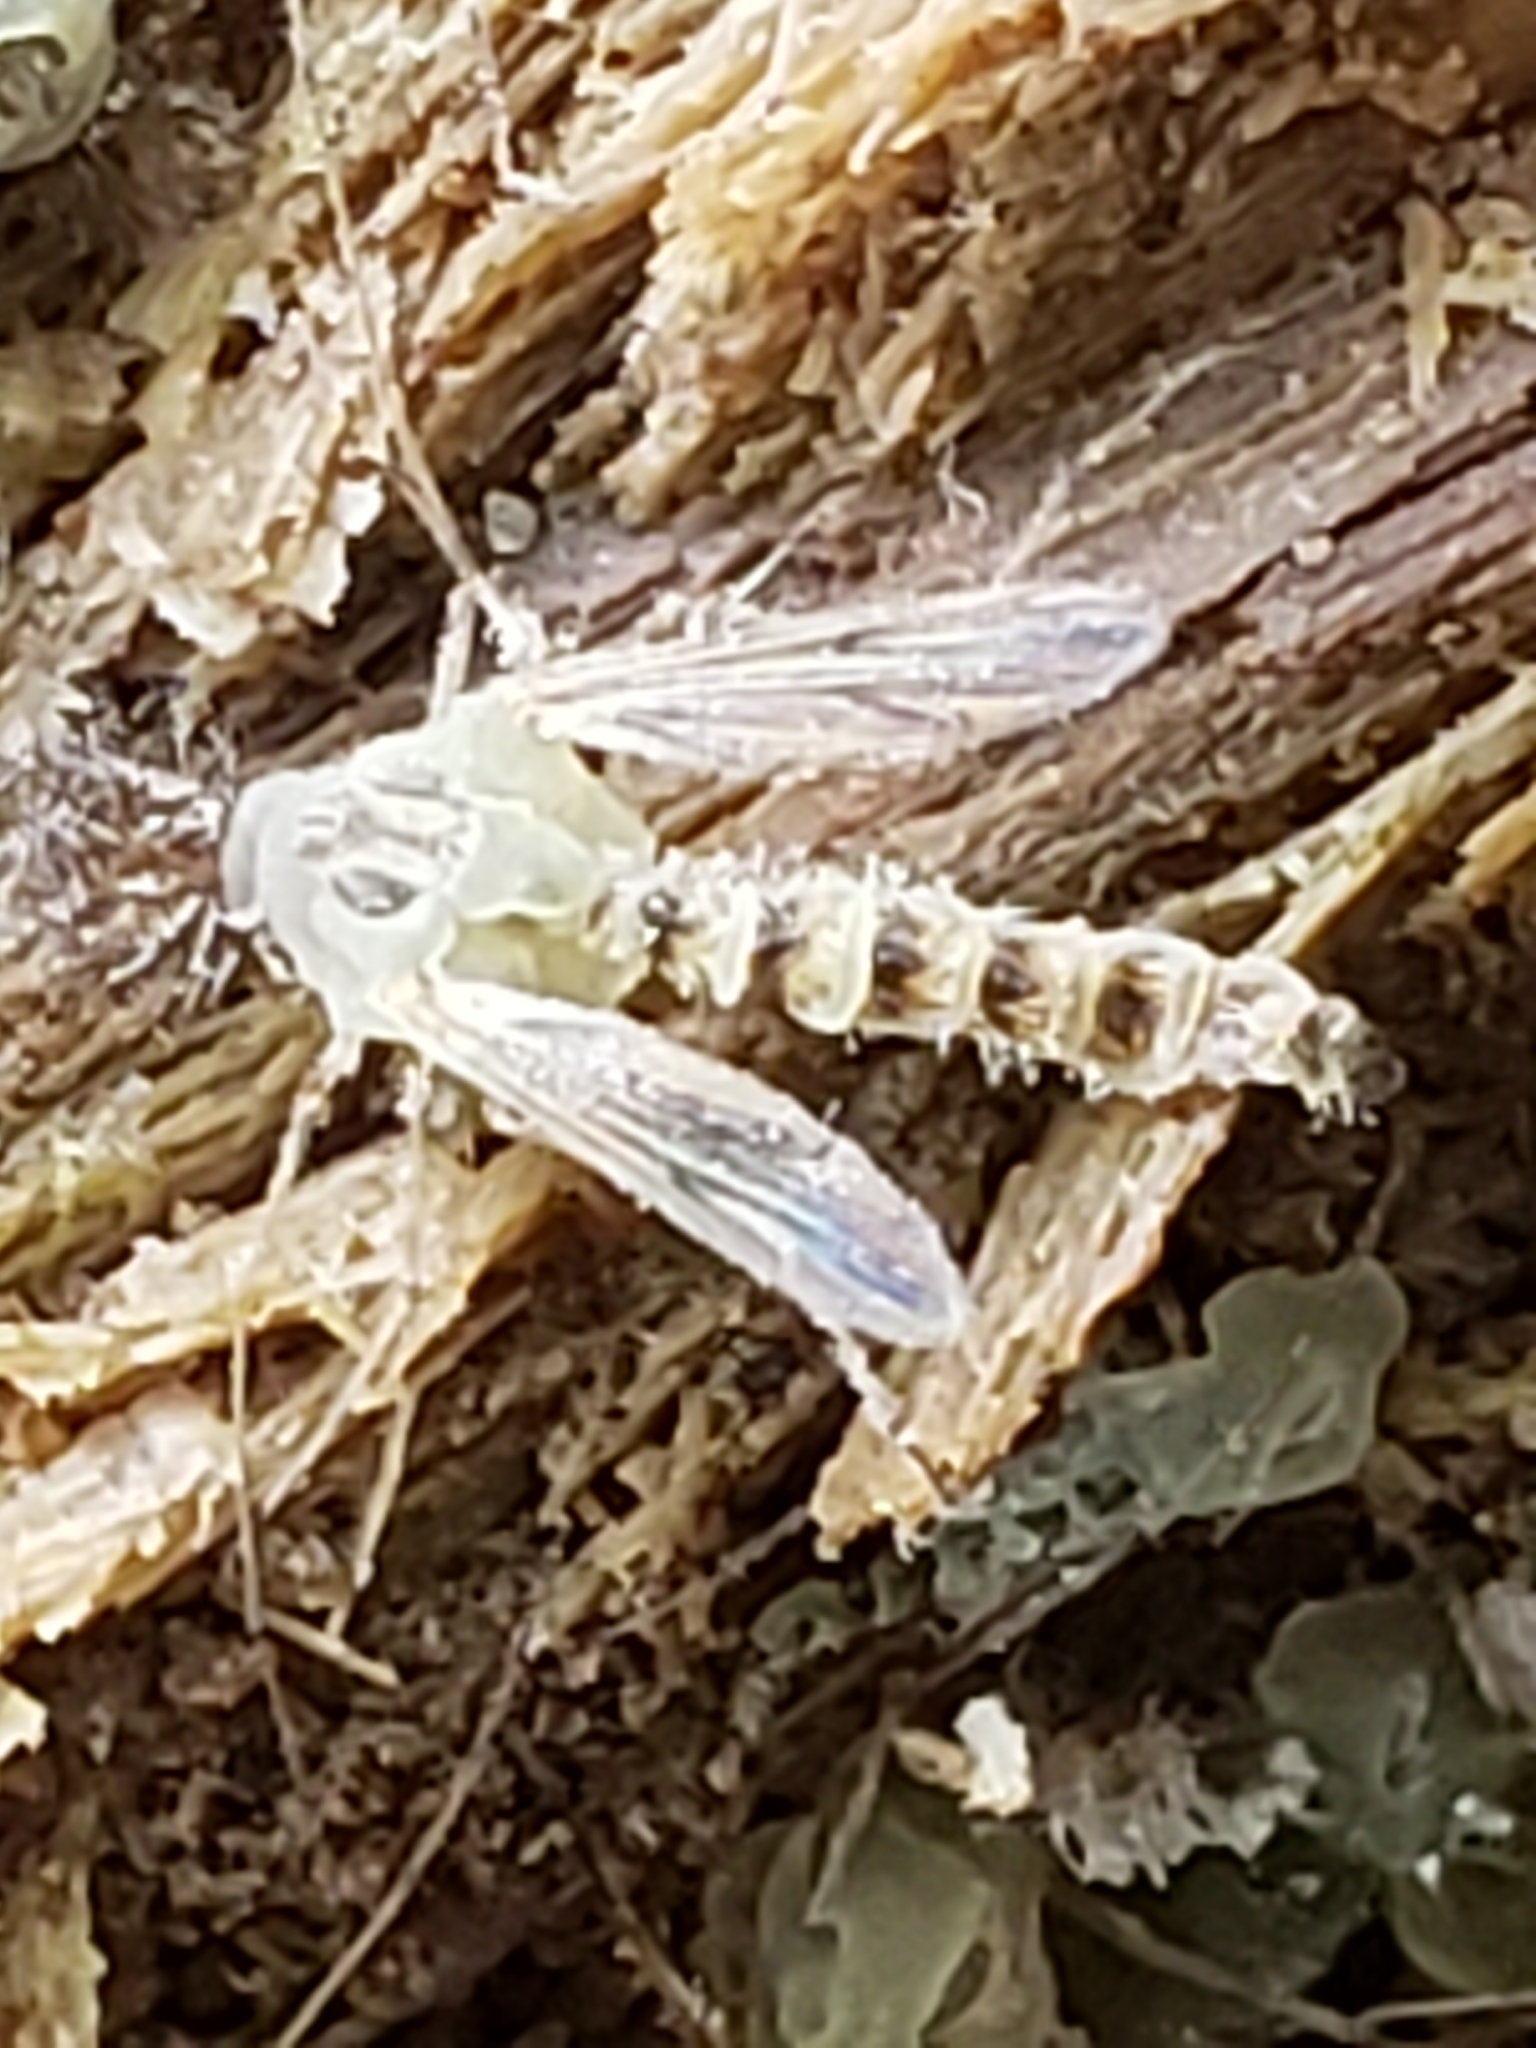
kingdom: Animalia
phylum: Arthropoda
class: Insecta
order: Diptera
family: Chironomidae
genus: Chironomus
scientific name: Chironomus
